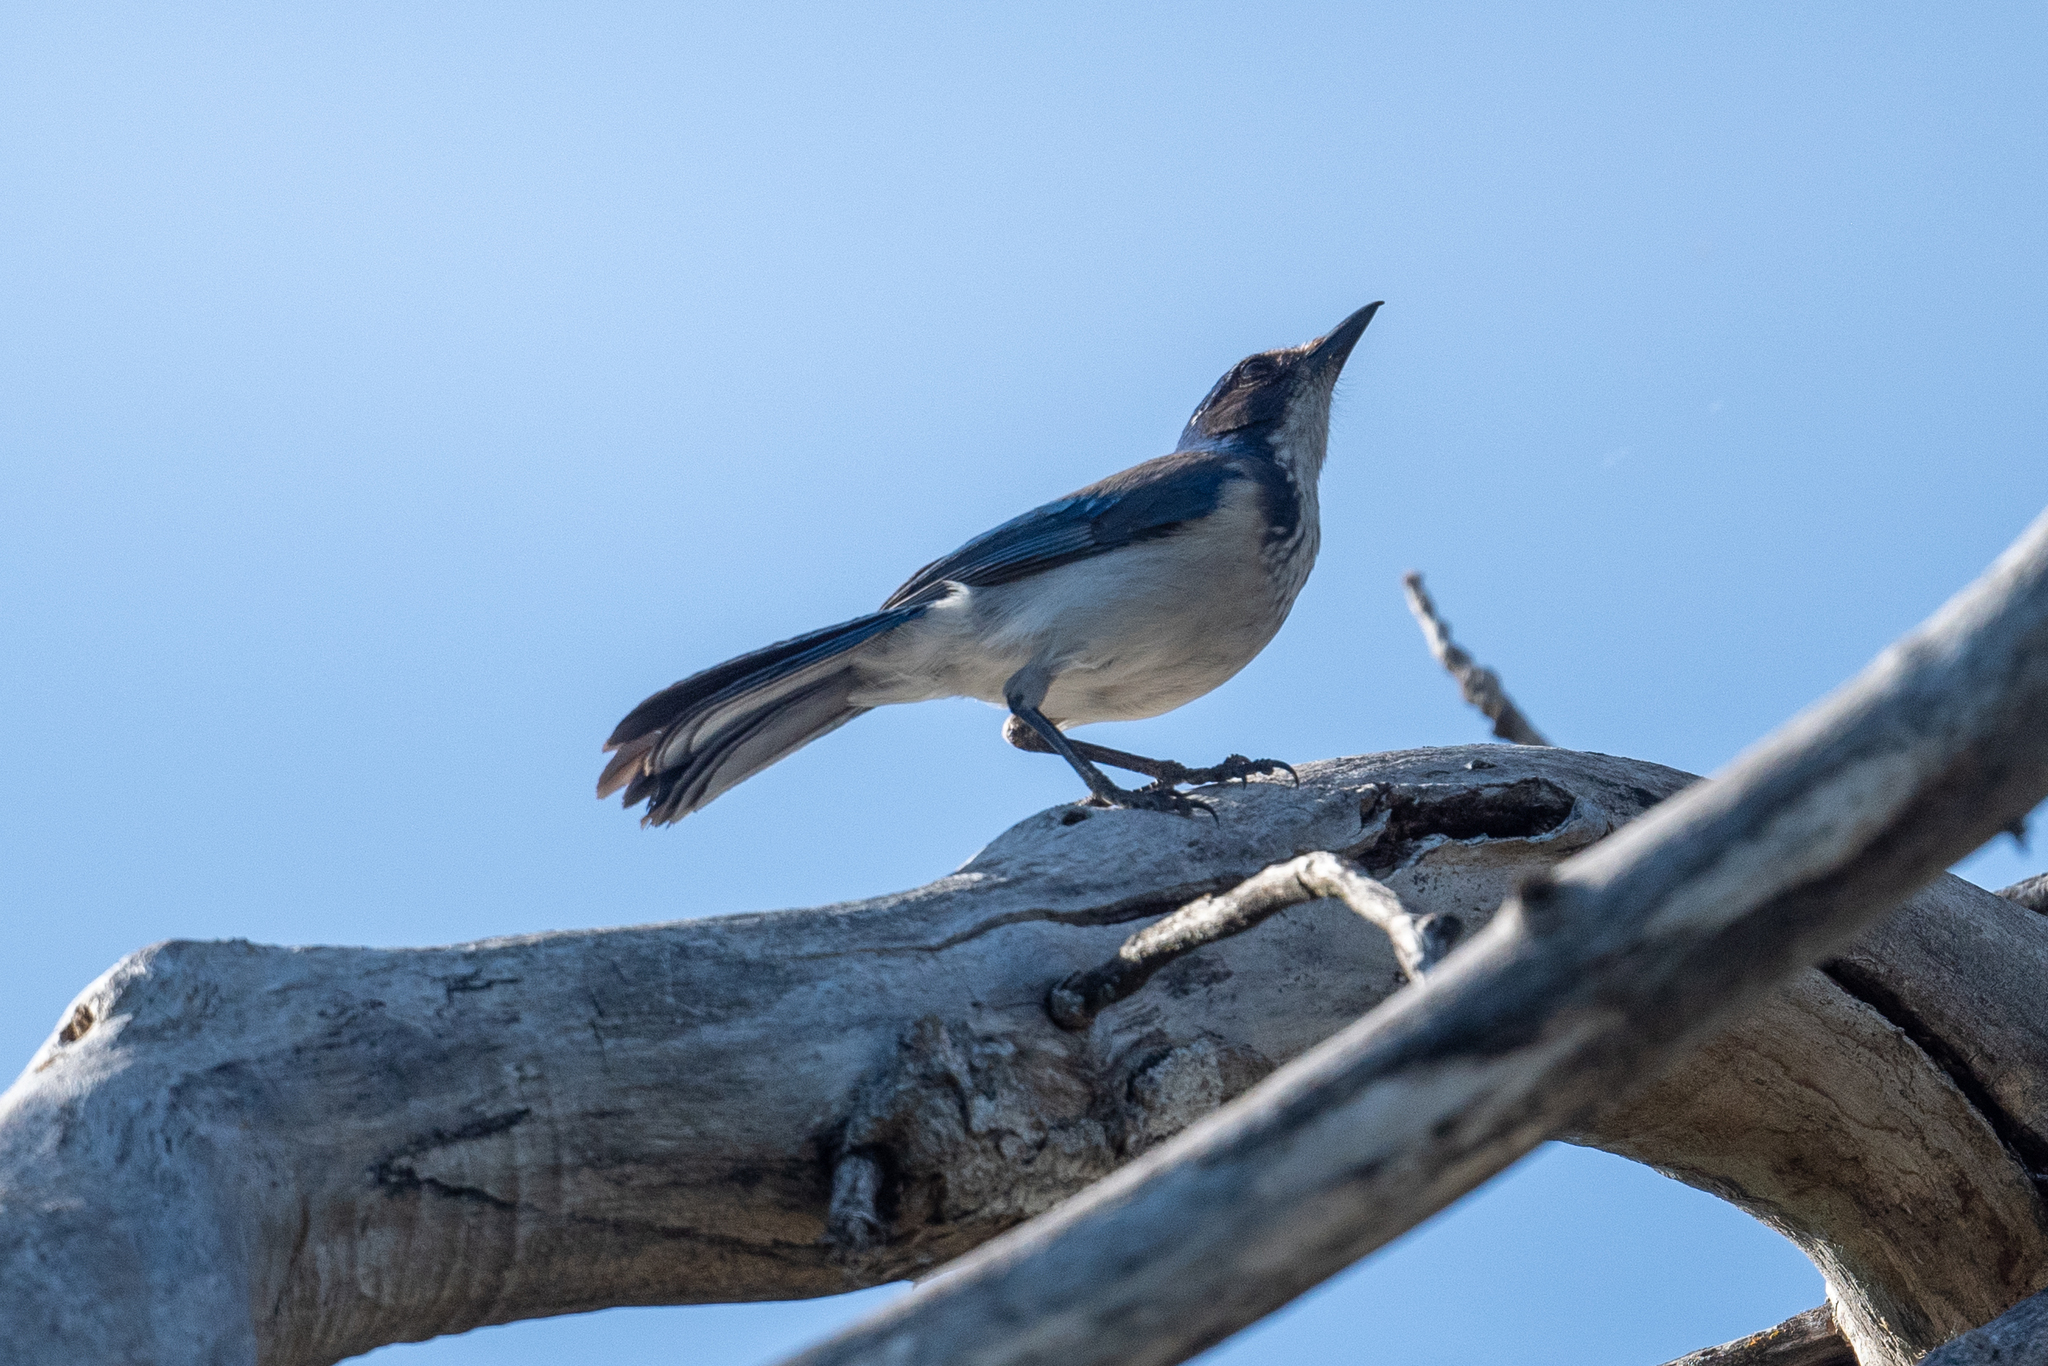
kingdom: Animalia
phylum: Chordata
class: Aves
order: Passeriformes
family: Corvidae
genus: Aphelocoma
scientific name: Aphelocoma californica
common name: California scrub-jay
